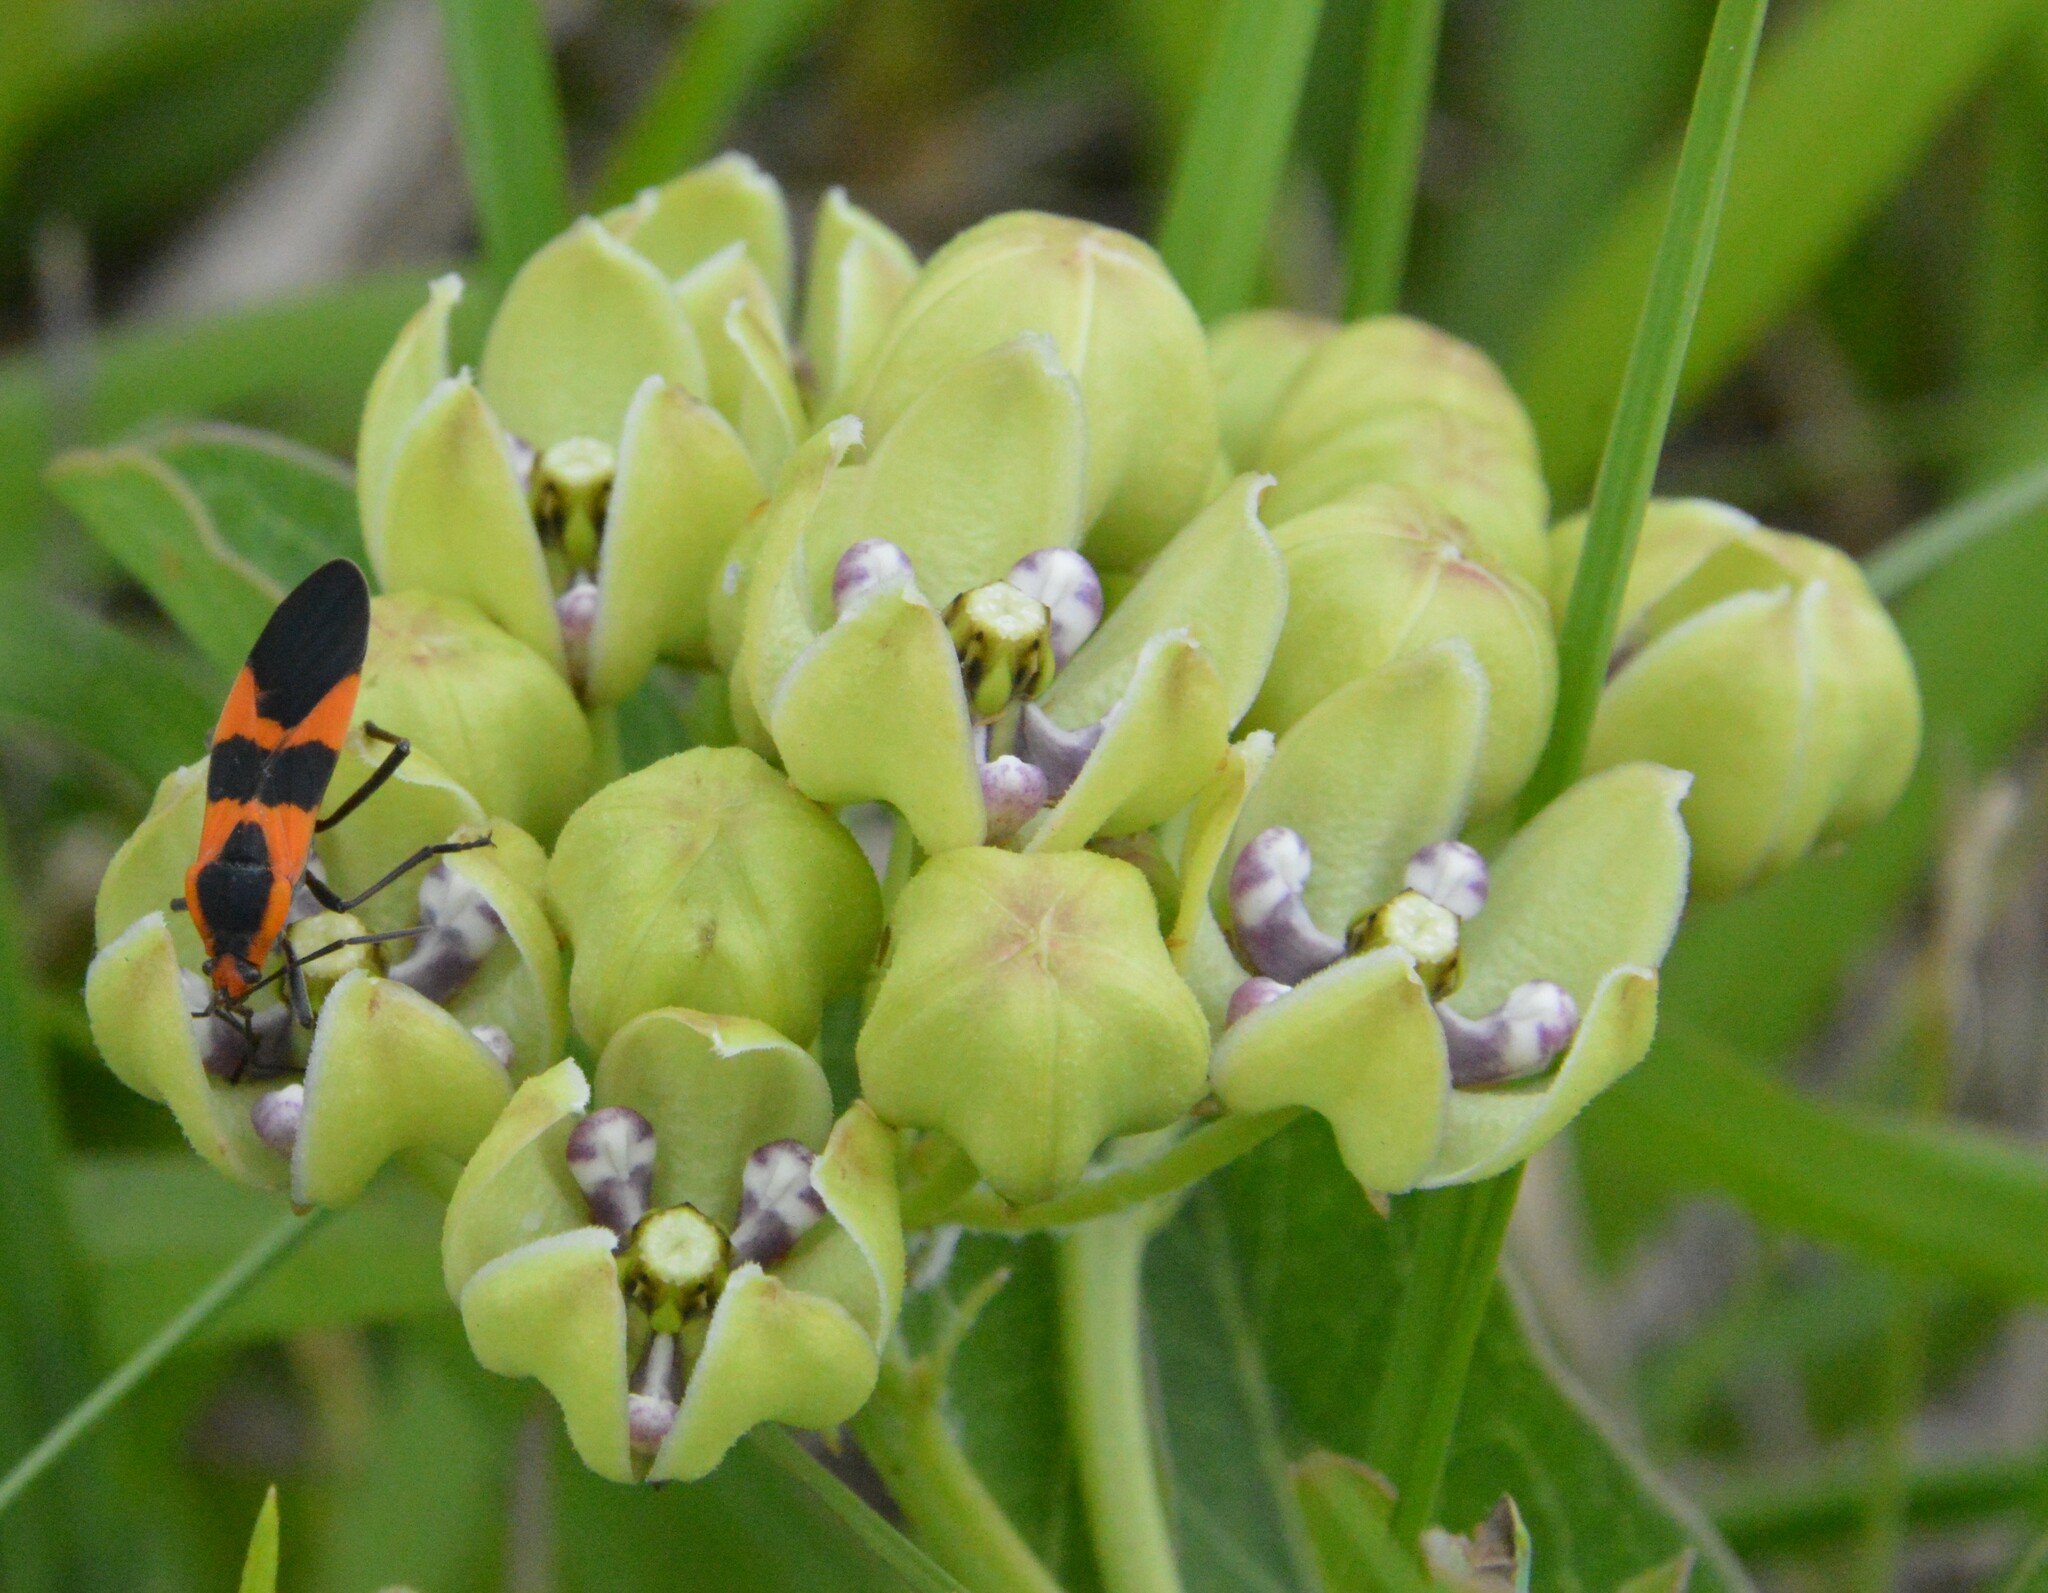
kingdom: Plantae
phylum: Tracheophyta
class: Magnoliopsida
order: Gentianales
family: Apocynaceae
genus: Asclepias
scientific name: Asclepias viridis
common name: Antelope-horns
